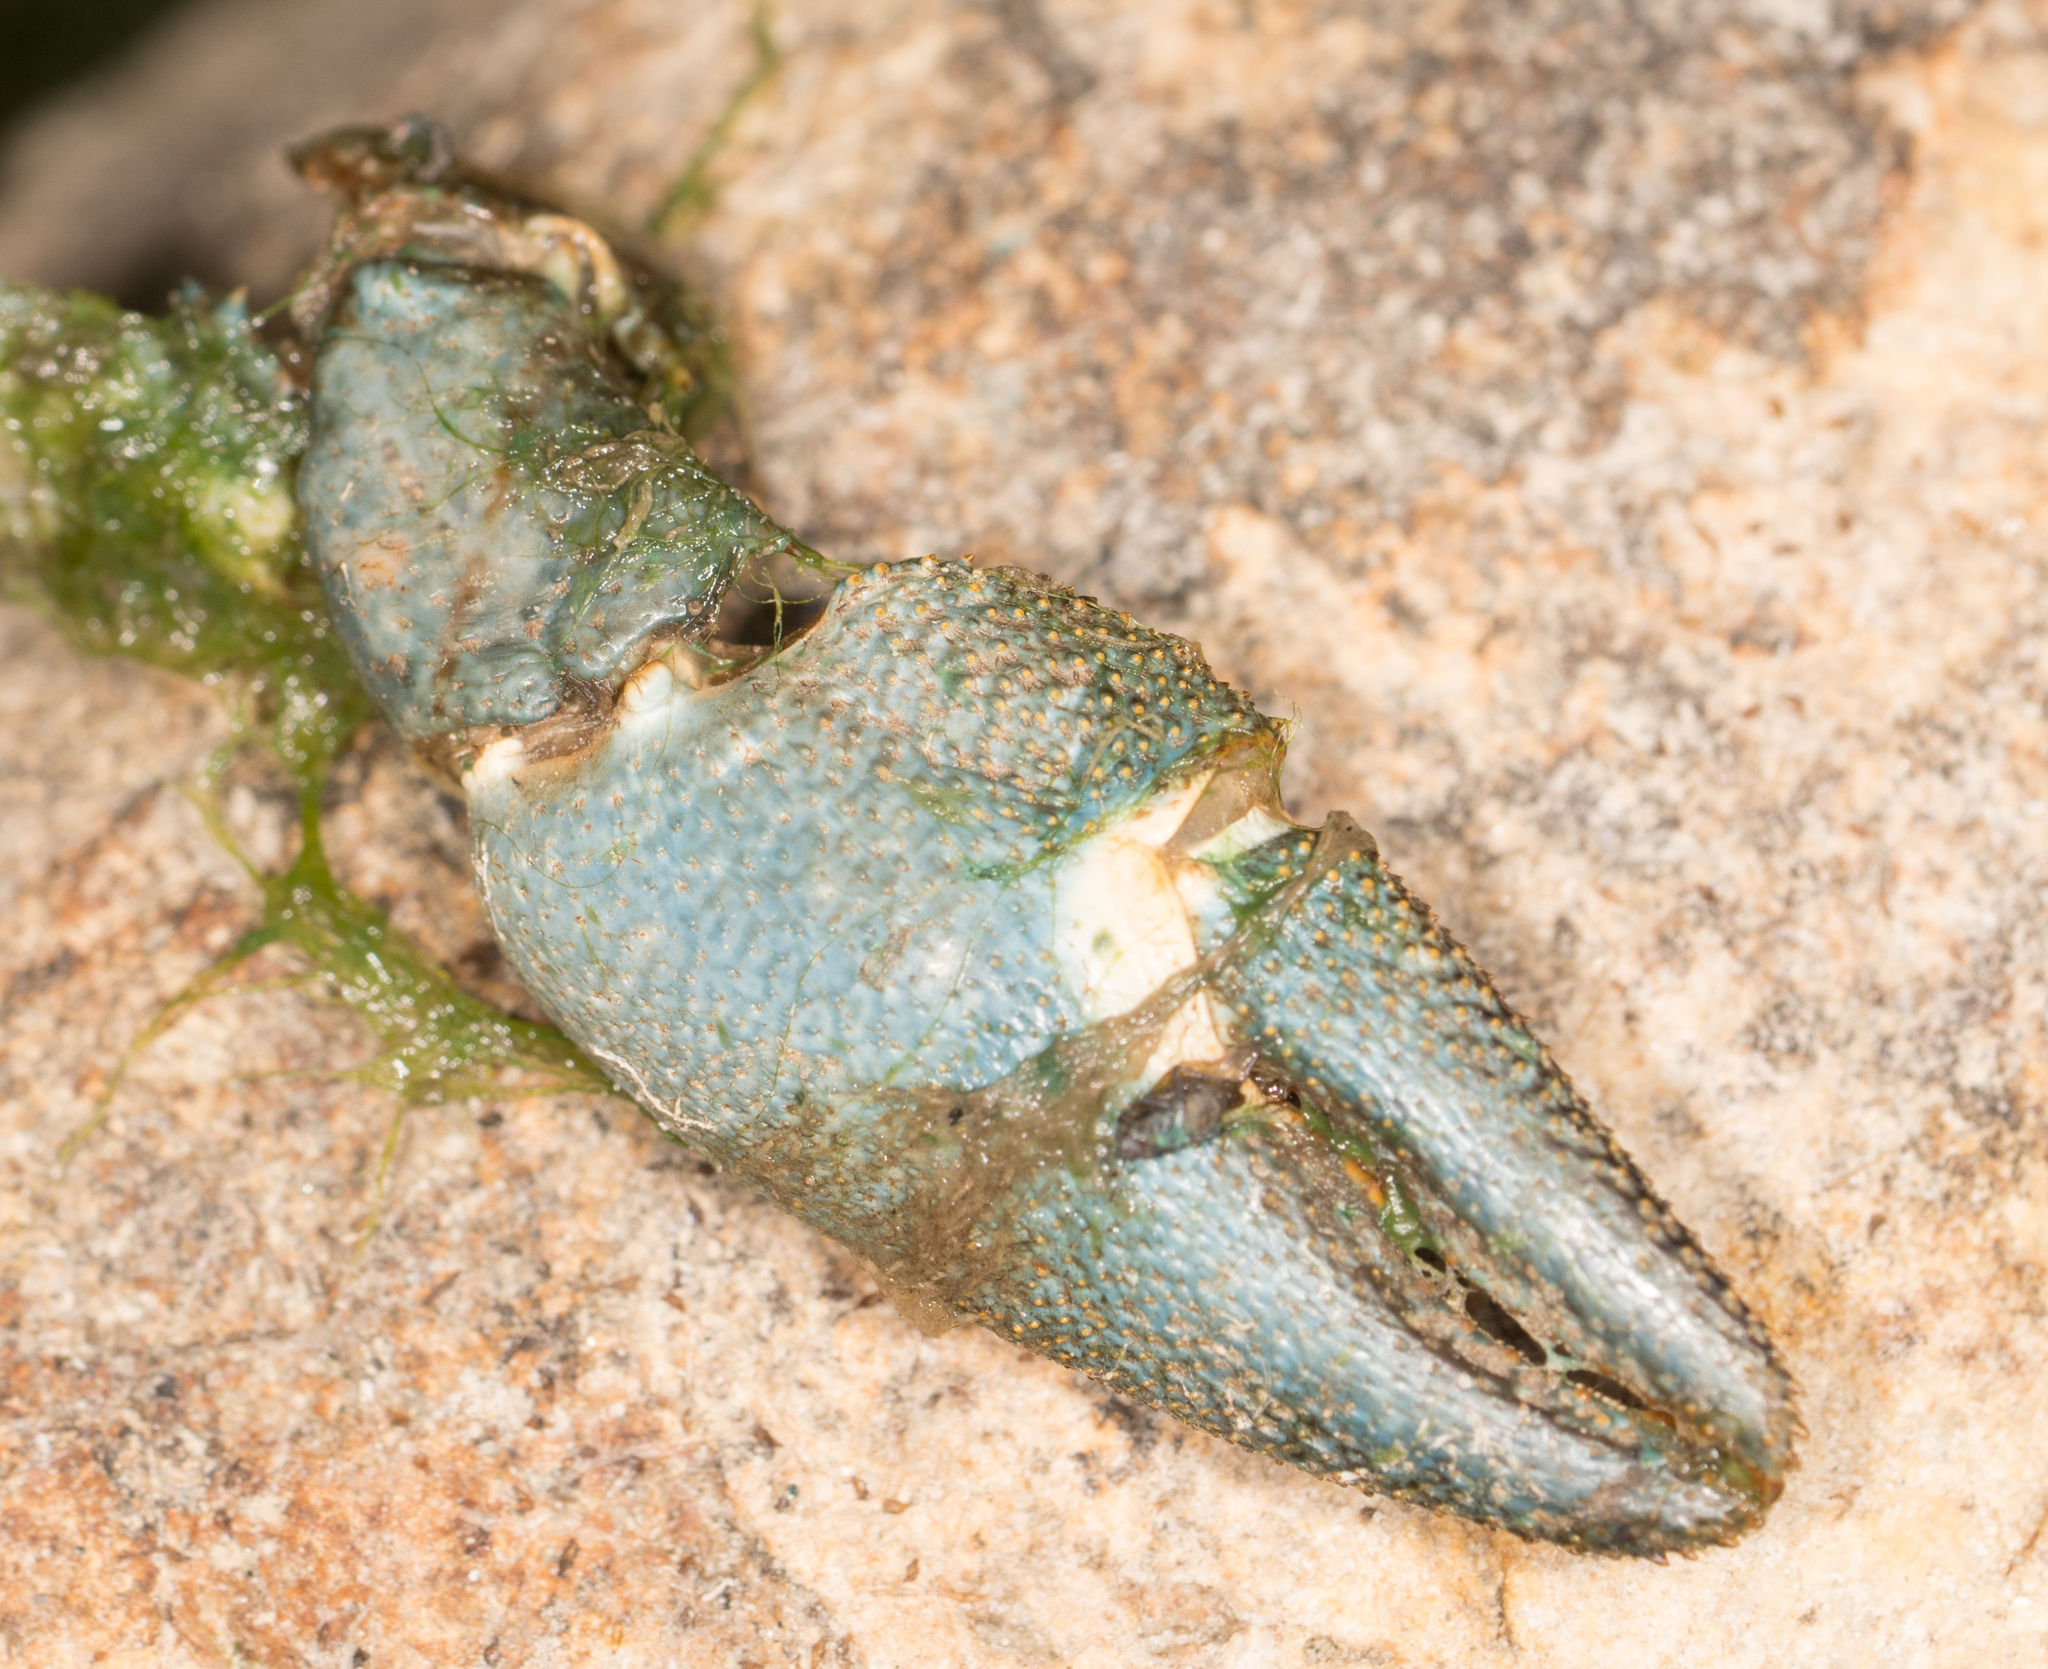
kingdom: Animalia
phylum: Arthropoda
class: Malacostraca
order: Decapoda
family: Astacidae
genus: Pacifastacus
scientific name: Pacifastacus leniusculus
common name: Signal crayfish
